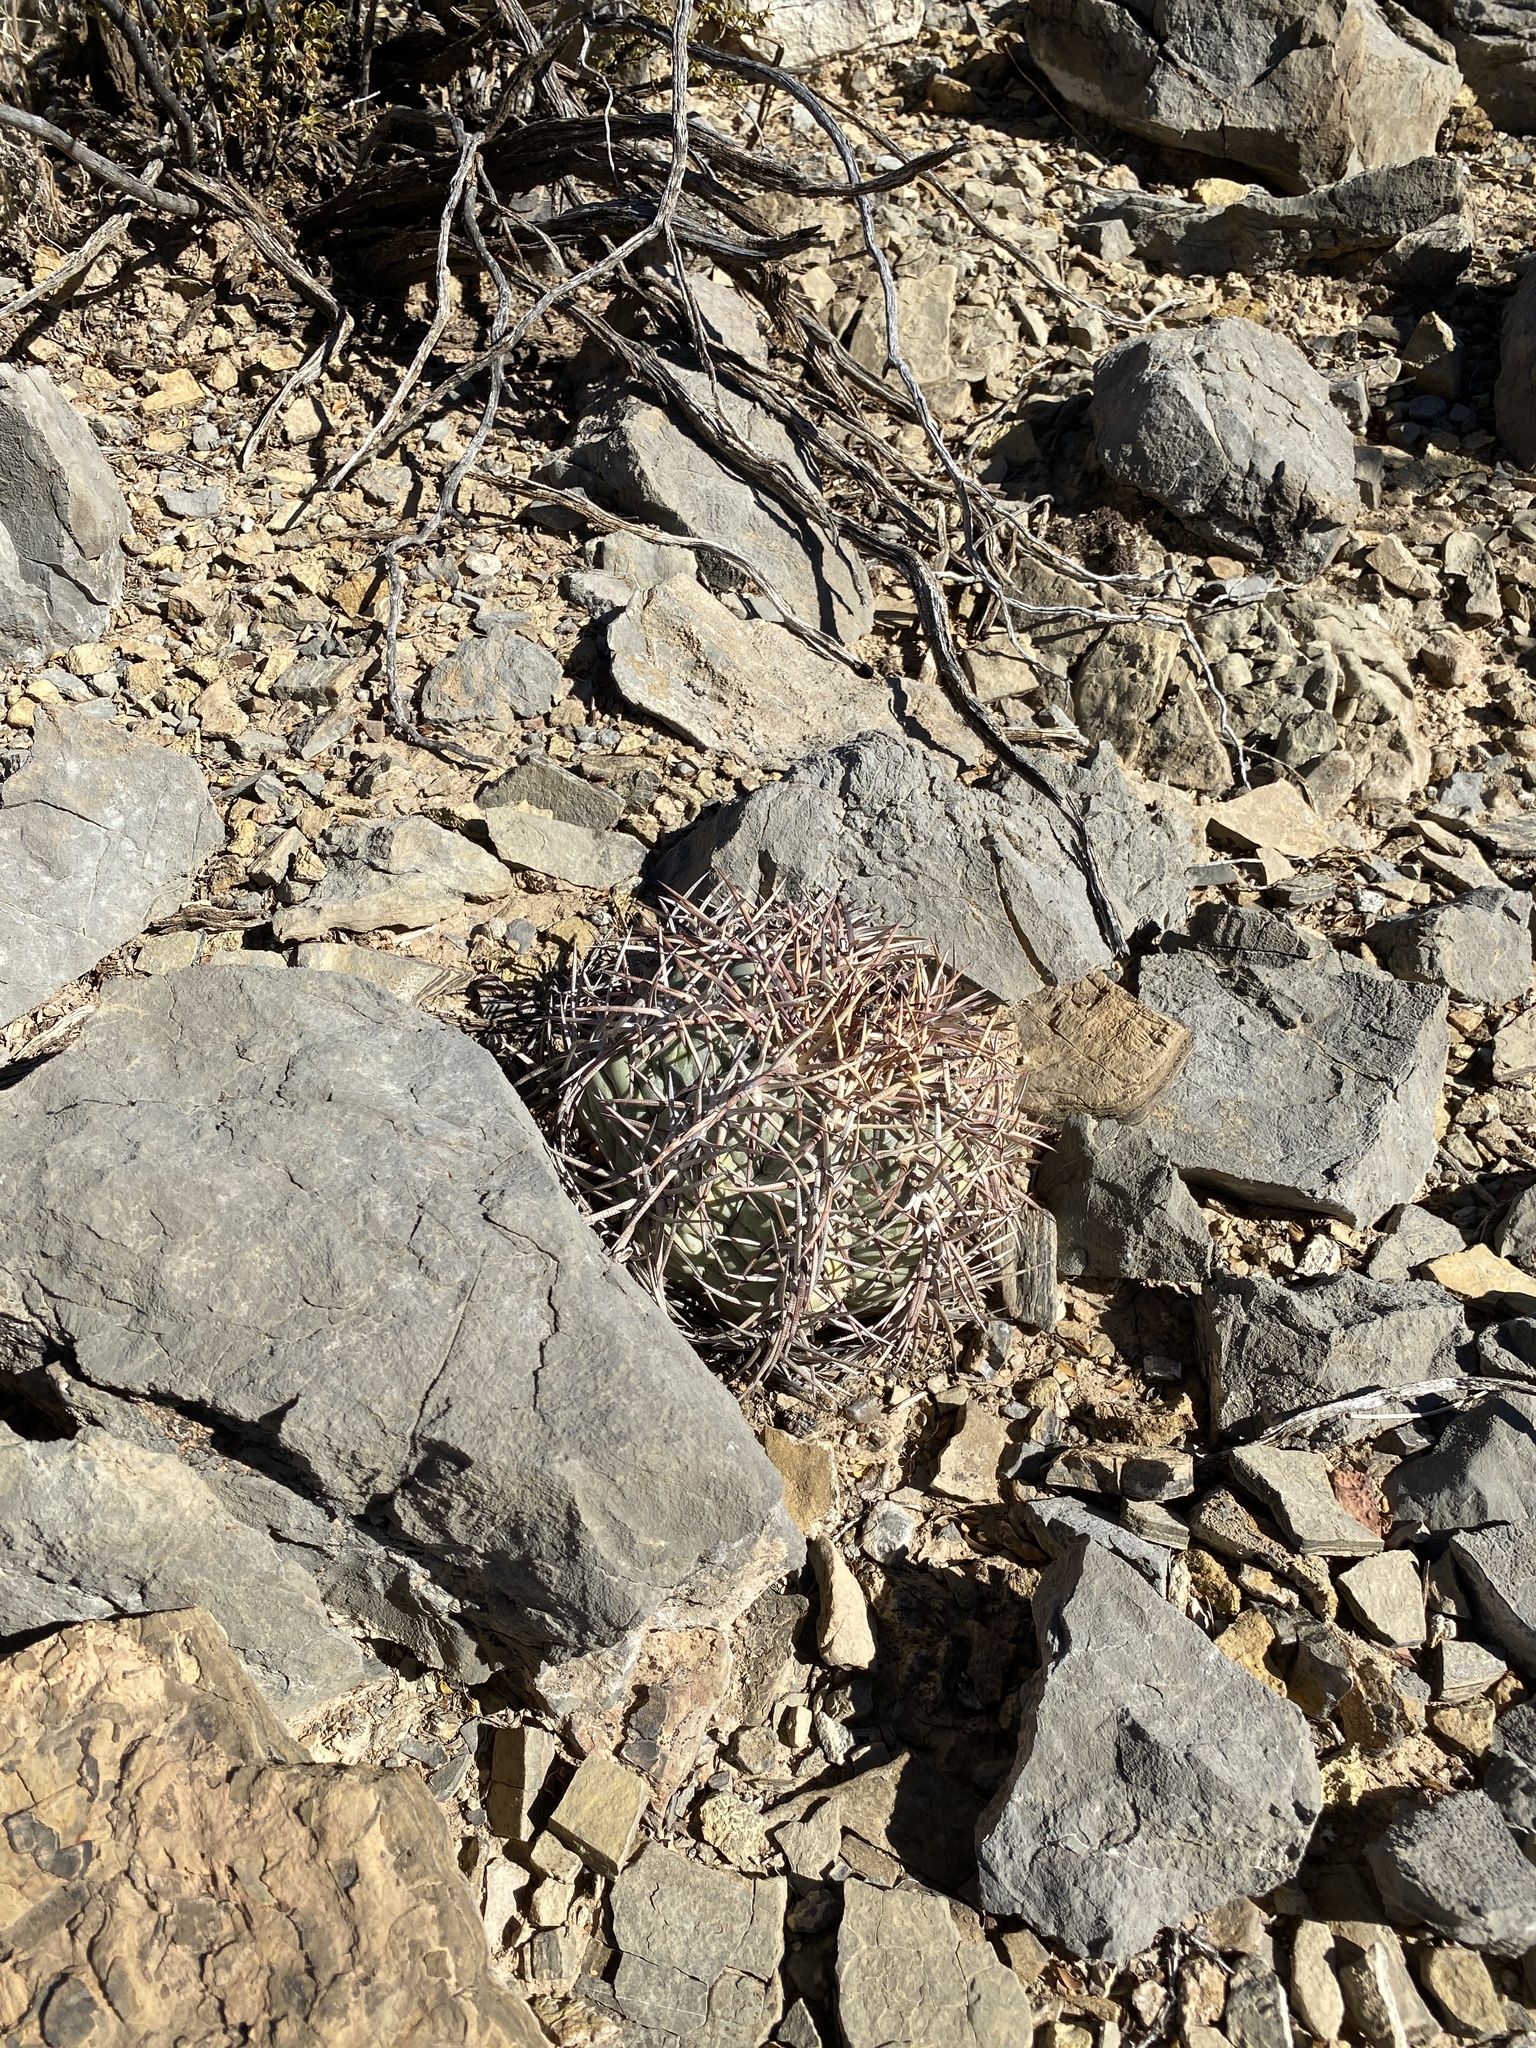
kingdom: Plantae
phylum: Tracheophyta
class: Magnoliopsida
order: Caryophyllales
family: Cactaceae
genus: Echinocactus
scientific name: Echinocactus horizonthalonius
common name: Devilshead
